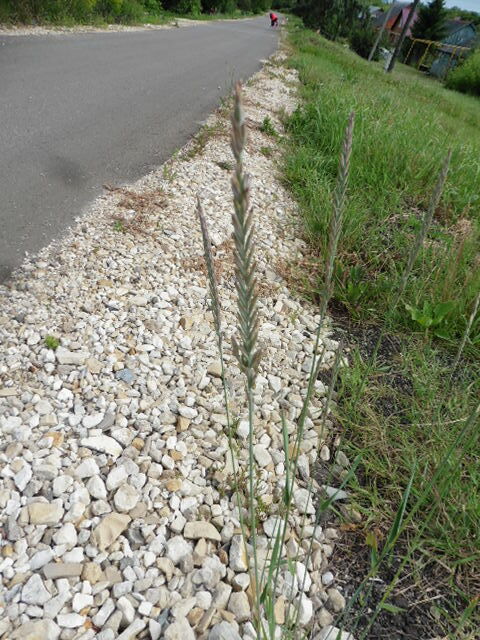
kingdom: Plantae
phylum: Tracheophyta
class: Liliopsida
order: Poales
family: Poaceae
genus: Elymus
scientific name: Elymus repens
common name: Quackgrass
